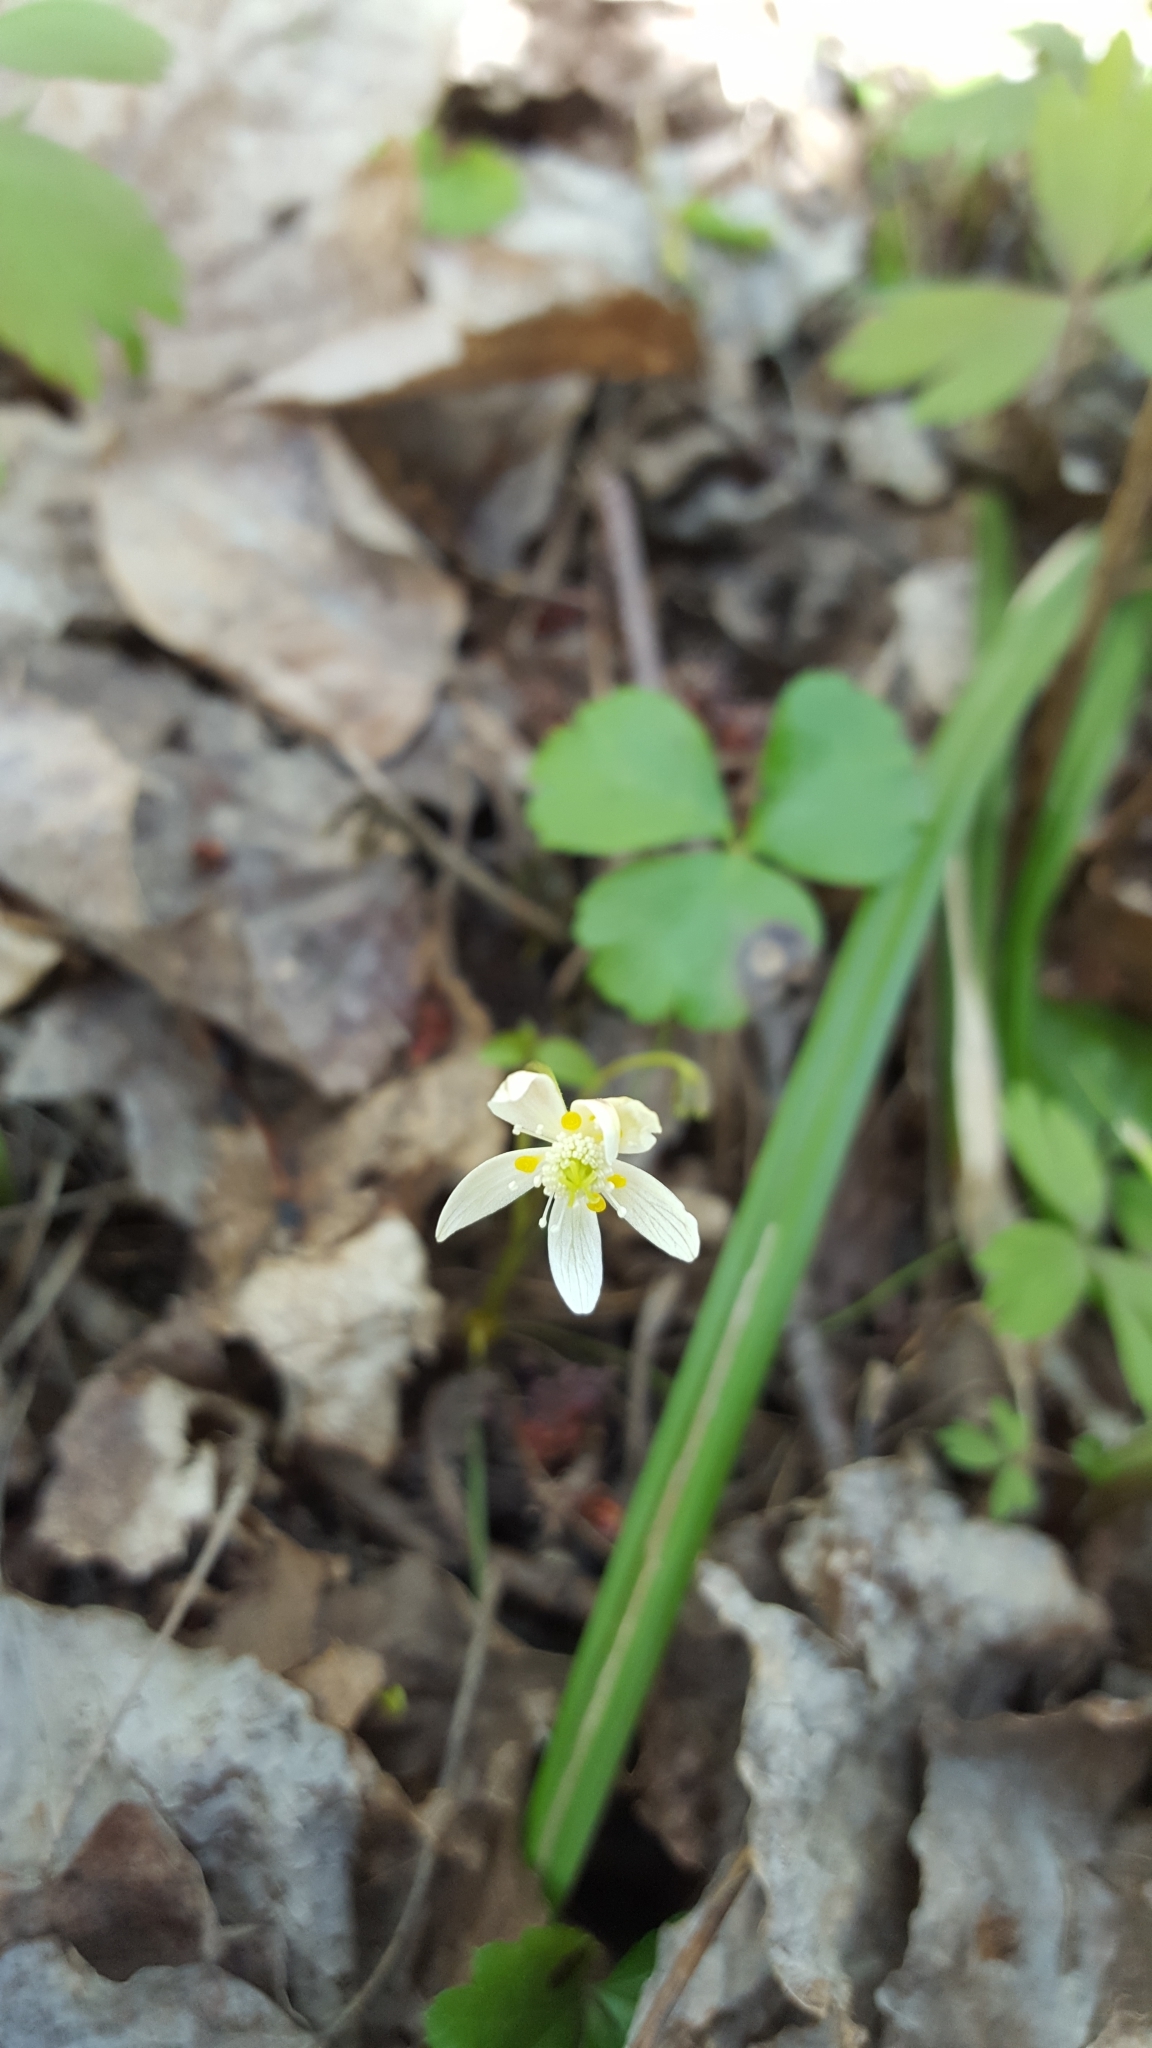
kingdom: Plantae
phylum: Tracheophyta
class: Magnoliopsida
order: Ranunculales
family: Ranunculaceae
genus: Coptis
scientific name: Coptis trifolia
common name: Canker-root
